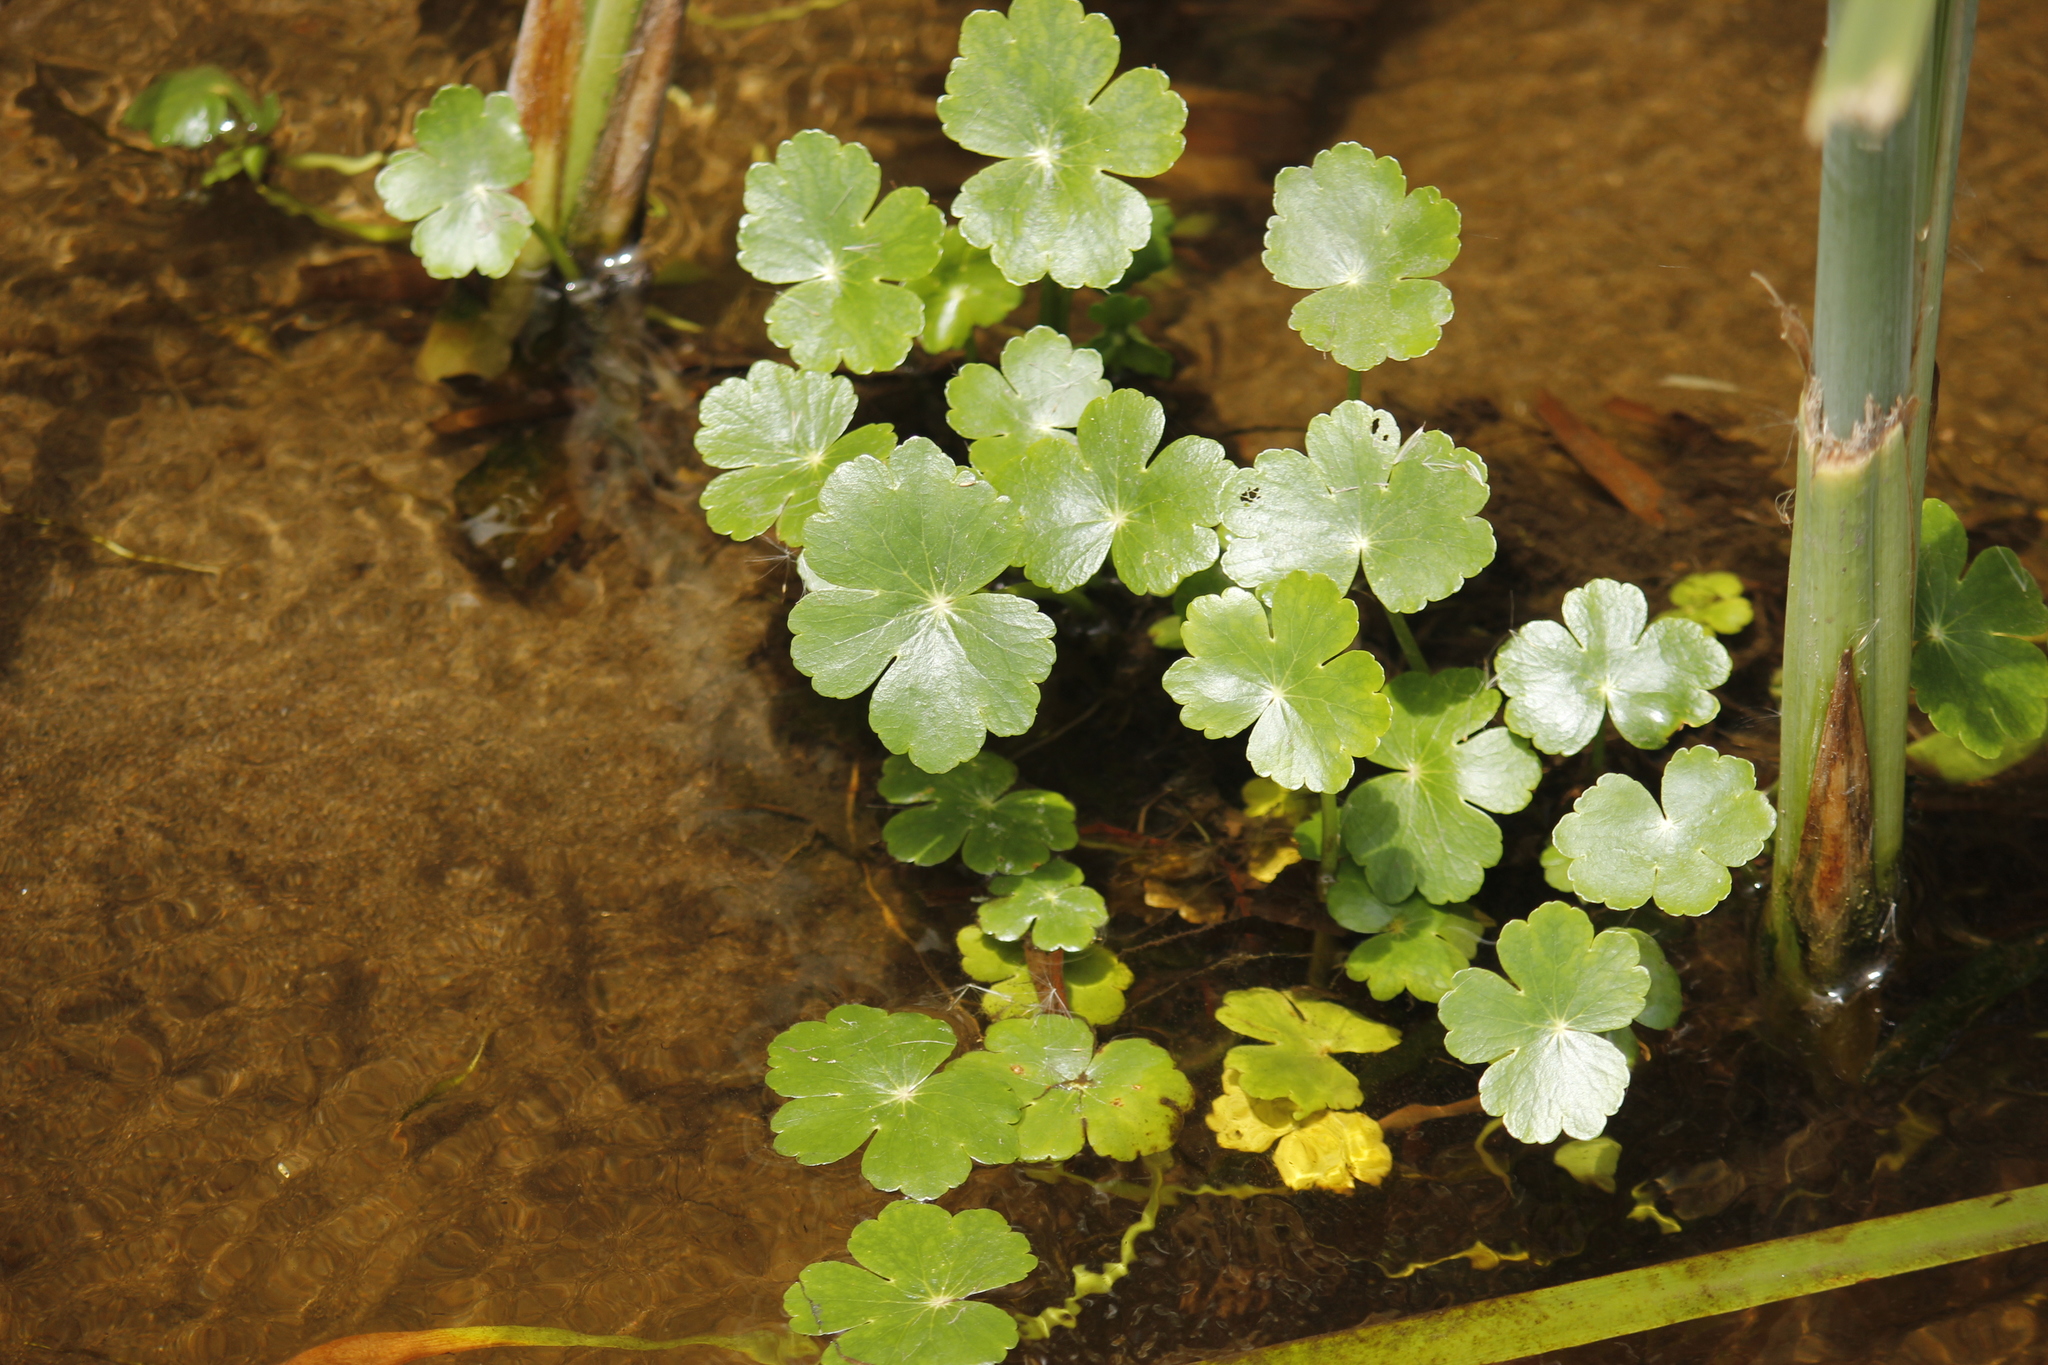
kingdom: Plantae
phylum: Tracheophyta
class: Magnoliopsida
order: Apiales
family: Araliaceae
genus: Hydrocotyle
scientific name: Hydrocotyle ranunculoides
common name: Floating pennywort
